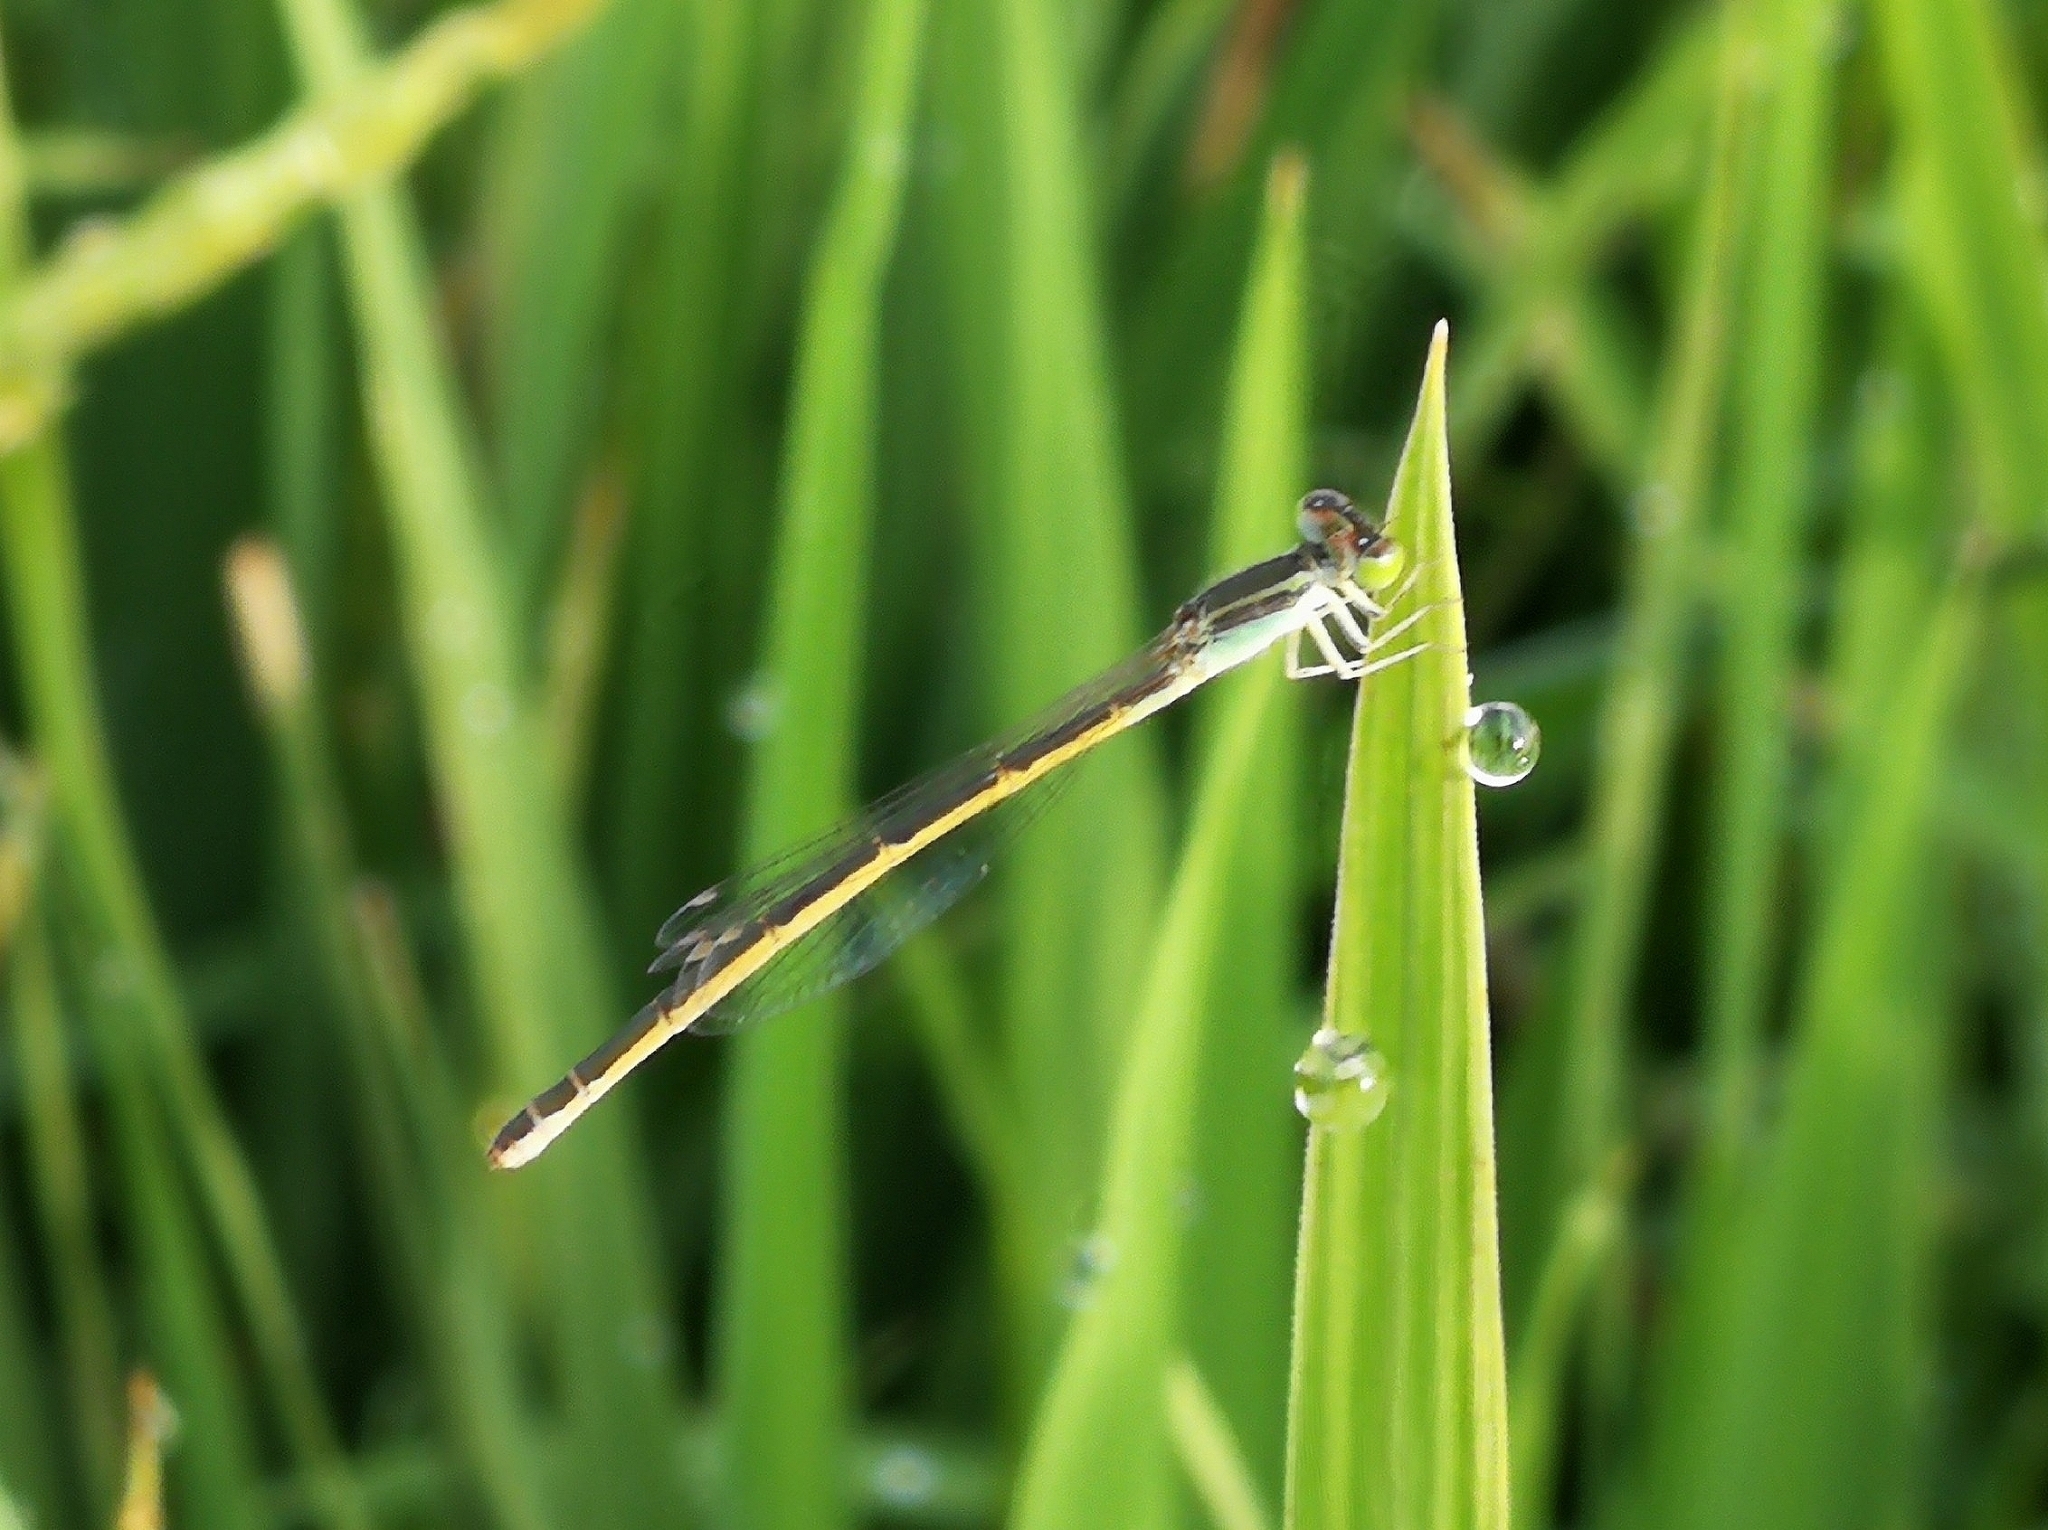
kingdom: Animalia
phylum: Arthropoda
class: Insecta
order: Odonata
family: Coenagrionidae
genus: Ischnura
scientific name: Ischnura rubilio
